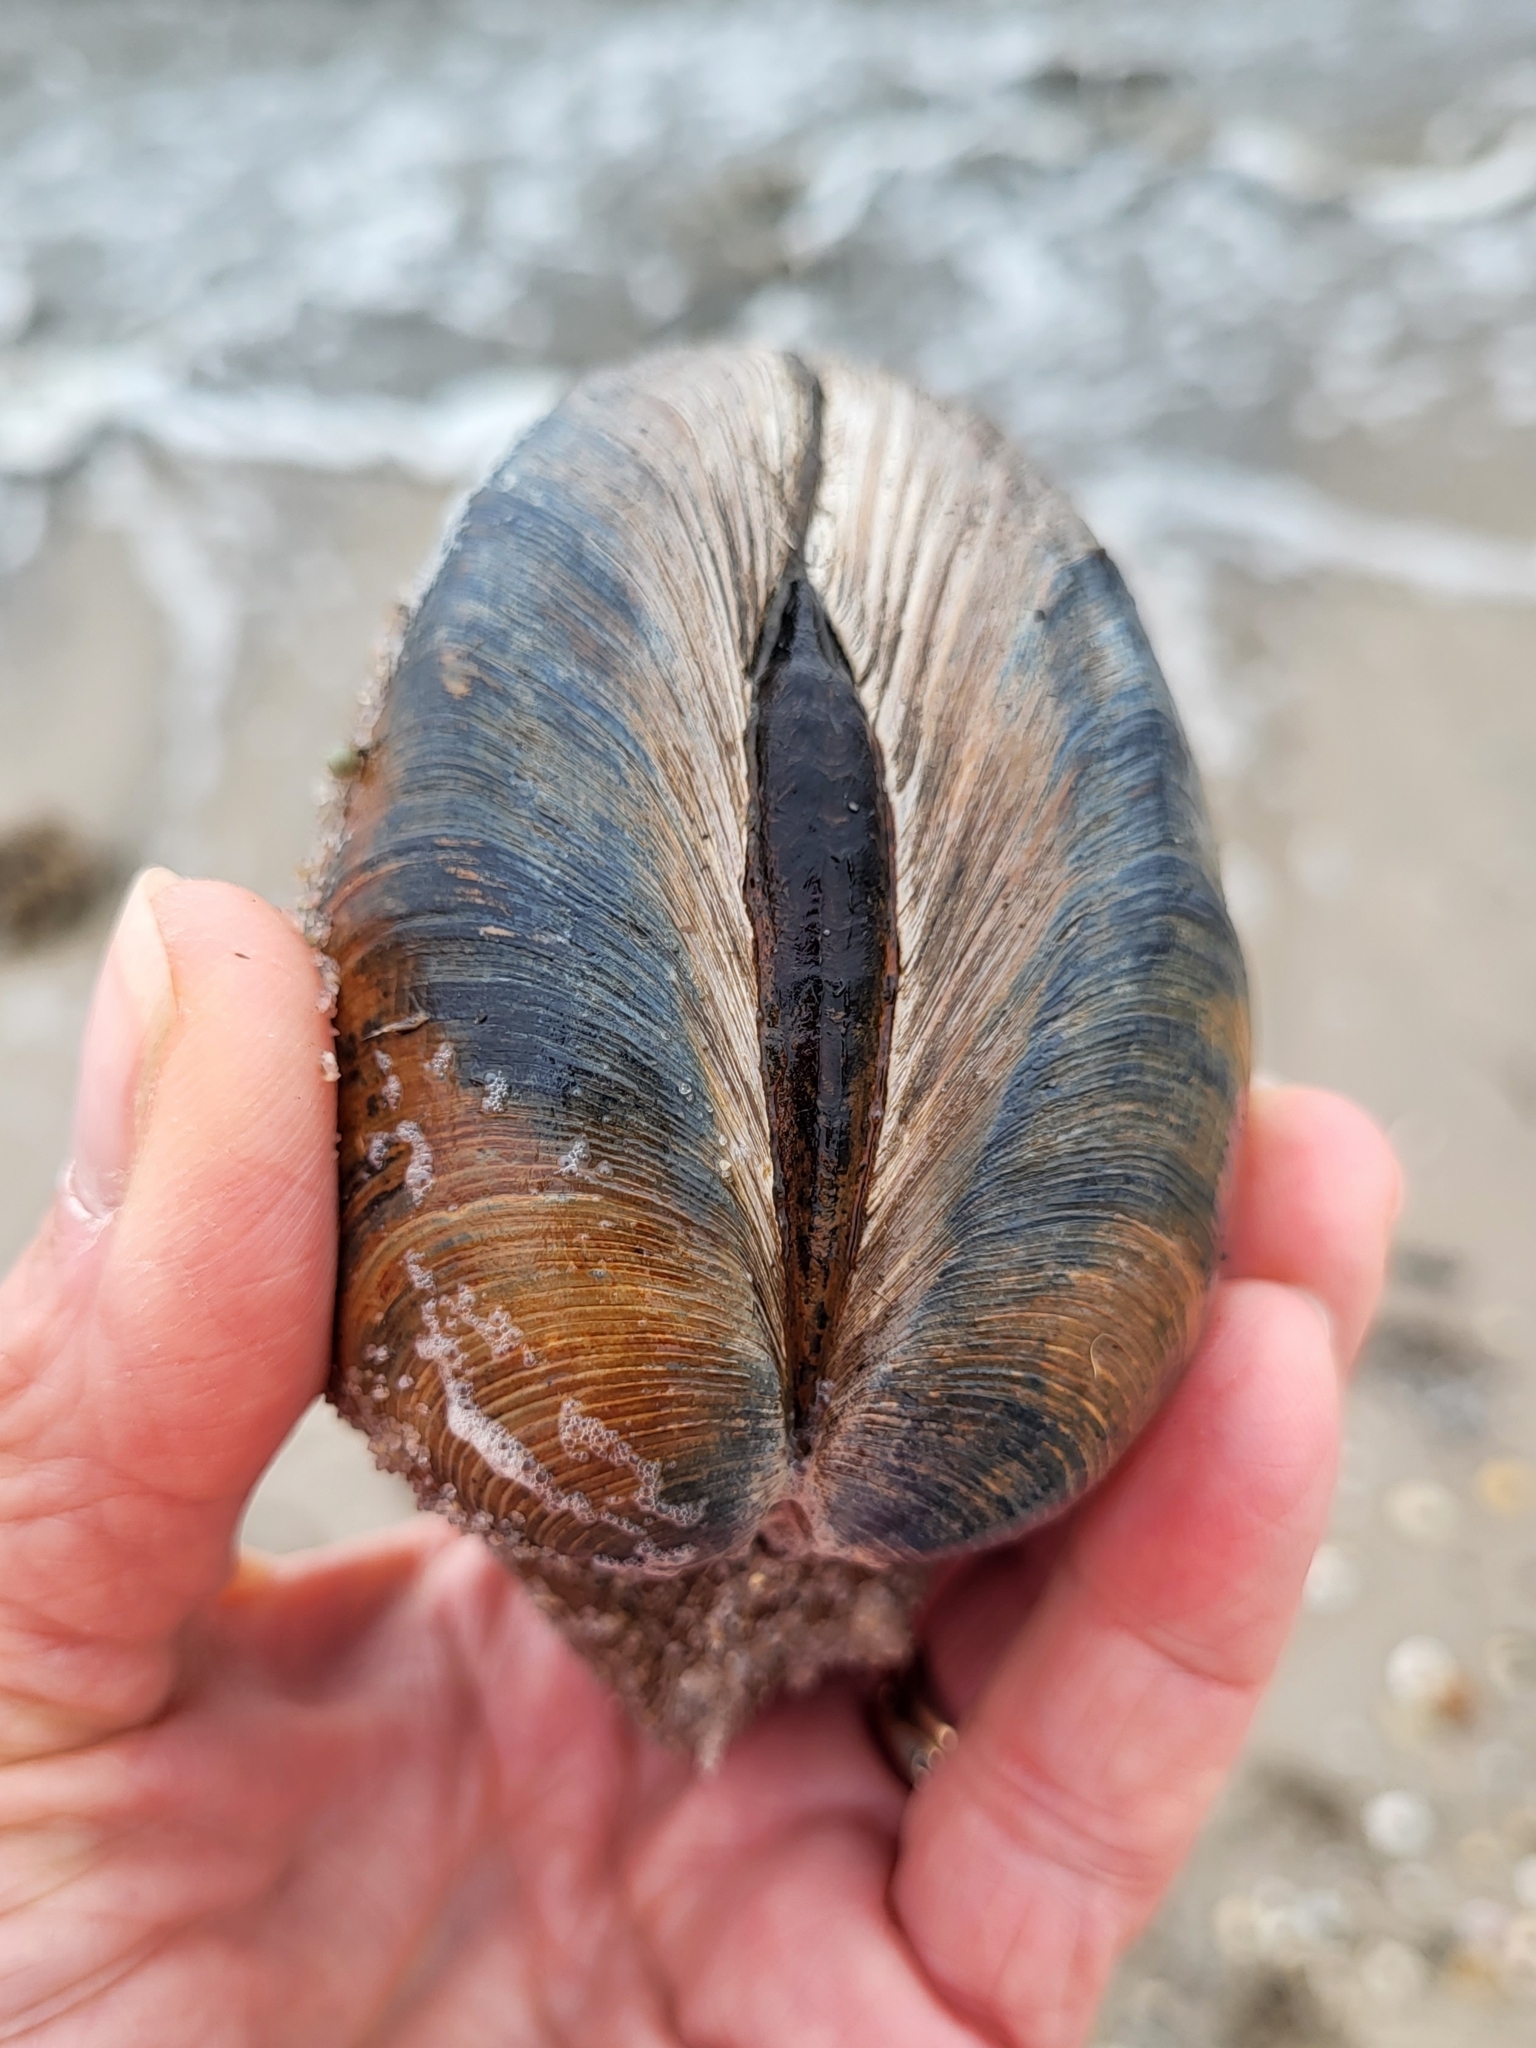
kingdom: Animalia
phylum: Mollusca
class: Bivalvia
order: Venerida
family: Veneridae
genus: Mercenaria
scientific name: Mercenaria mercenaria
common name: American hard-shelled clam
